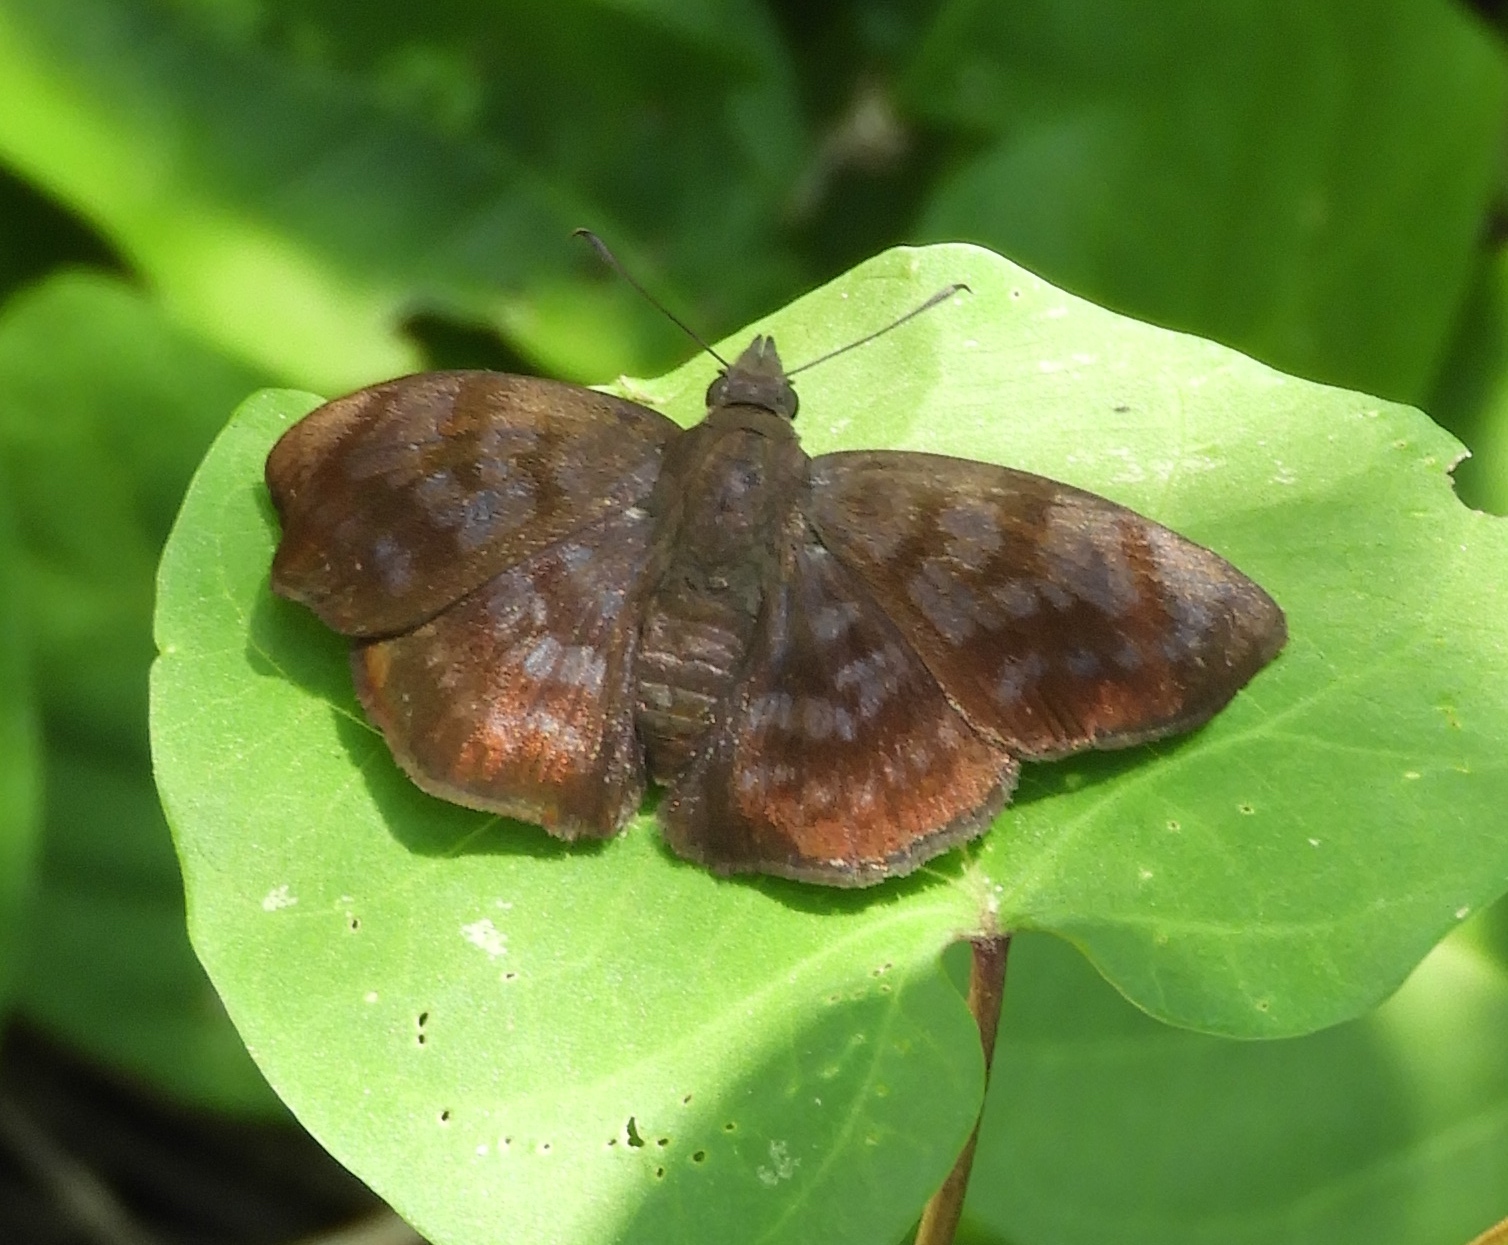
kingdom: Animalia
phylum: Arthropoda
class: Insecta
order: Lepidoptera
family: Hesperiidae
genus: Pellicia
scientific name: Pellicia costimacula
